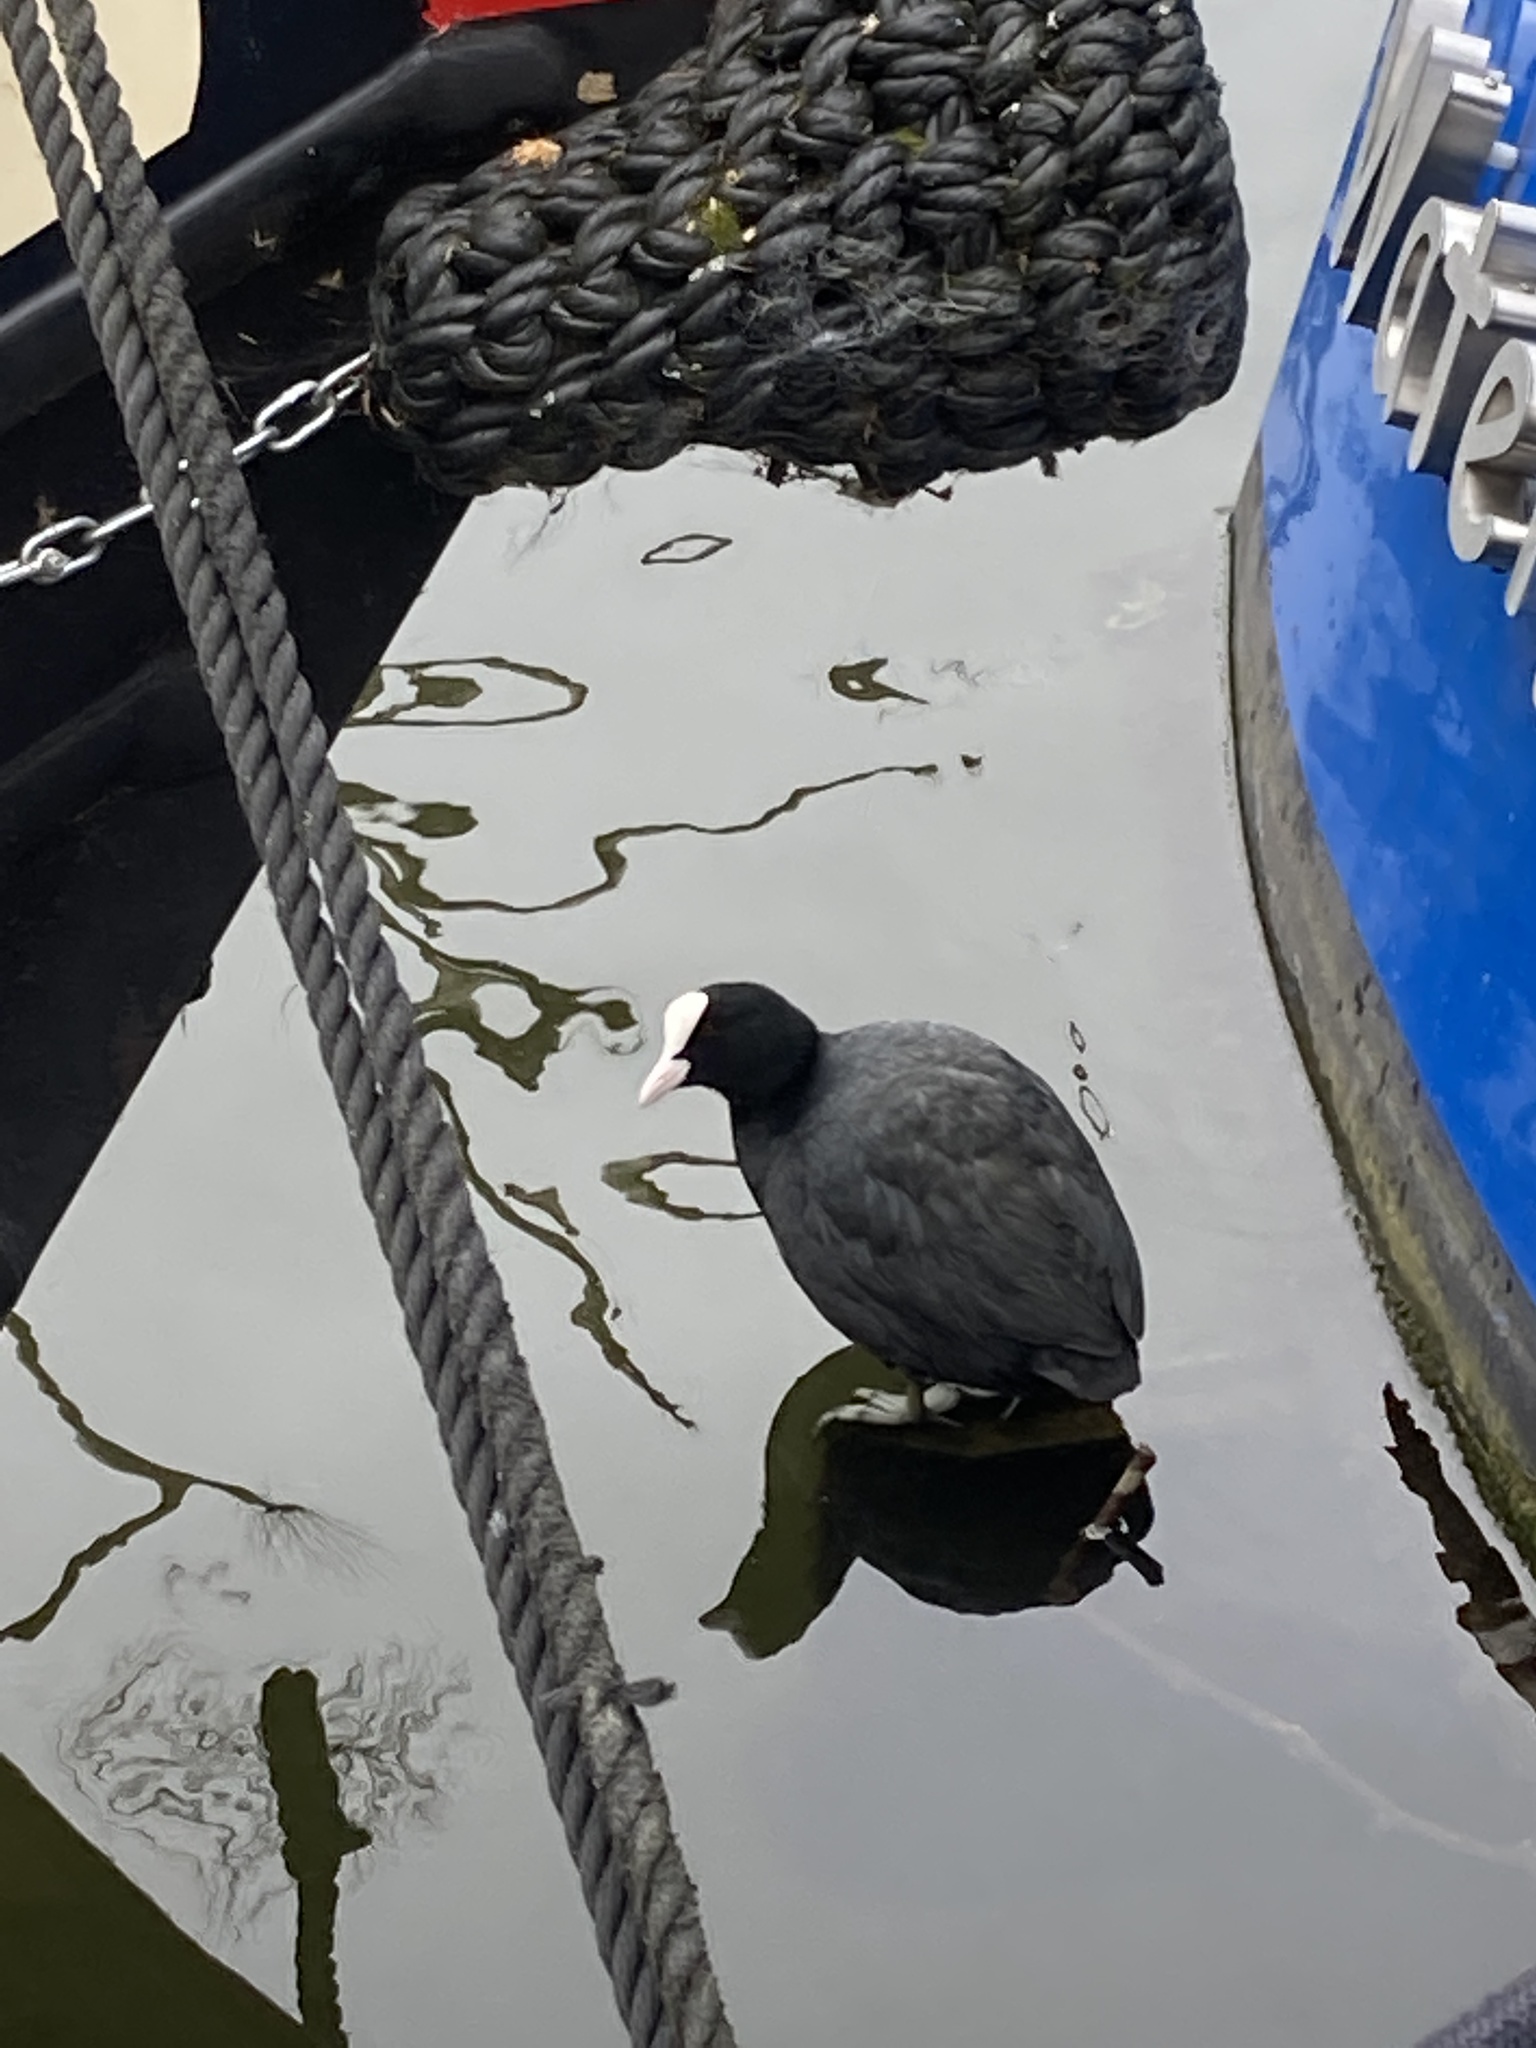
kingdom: Animalia
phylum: Chordata
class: Aves
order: Gruiformes
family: Rallidae
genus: Fulica
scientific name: Fulica atra
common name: Eurasian coot
